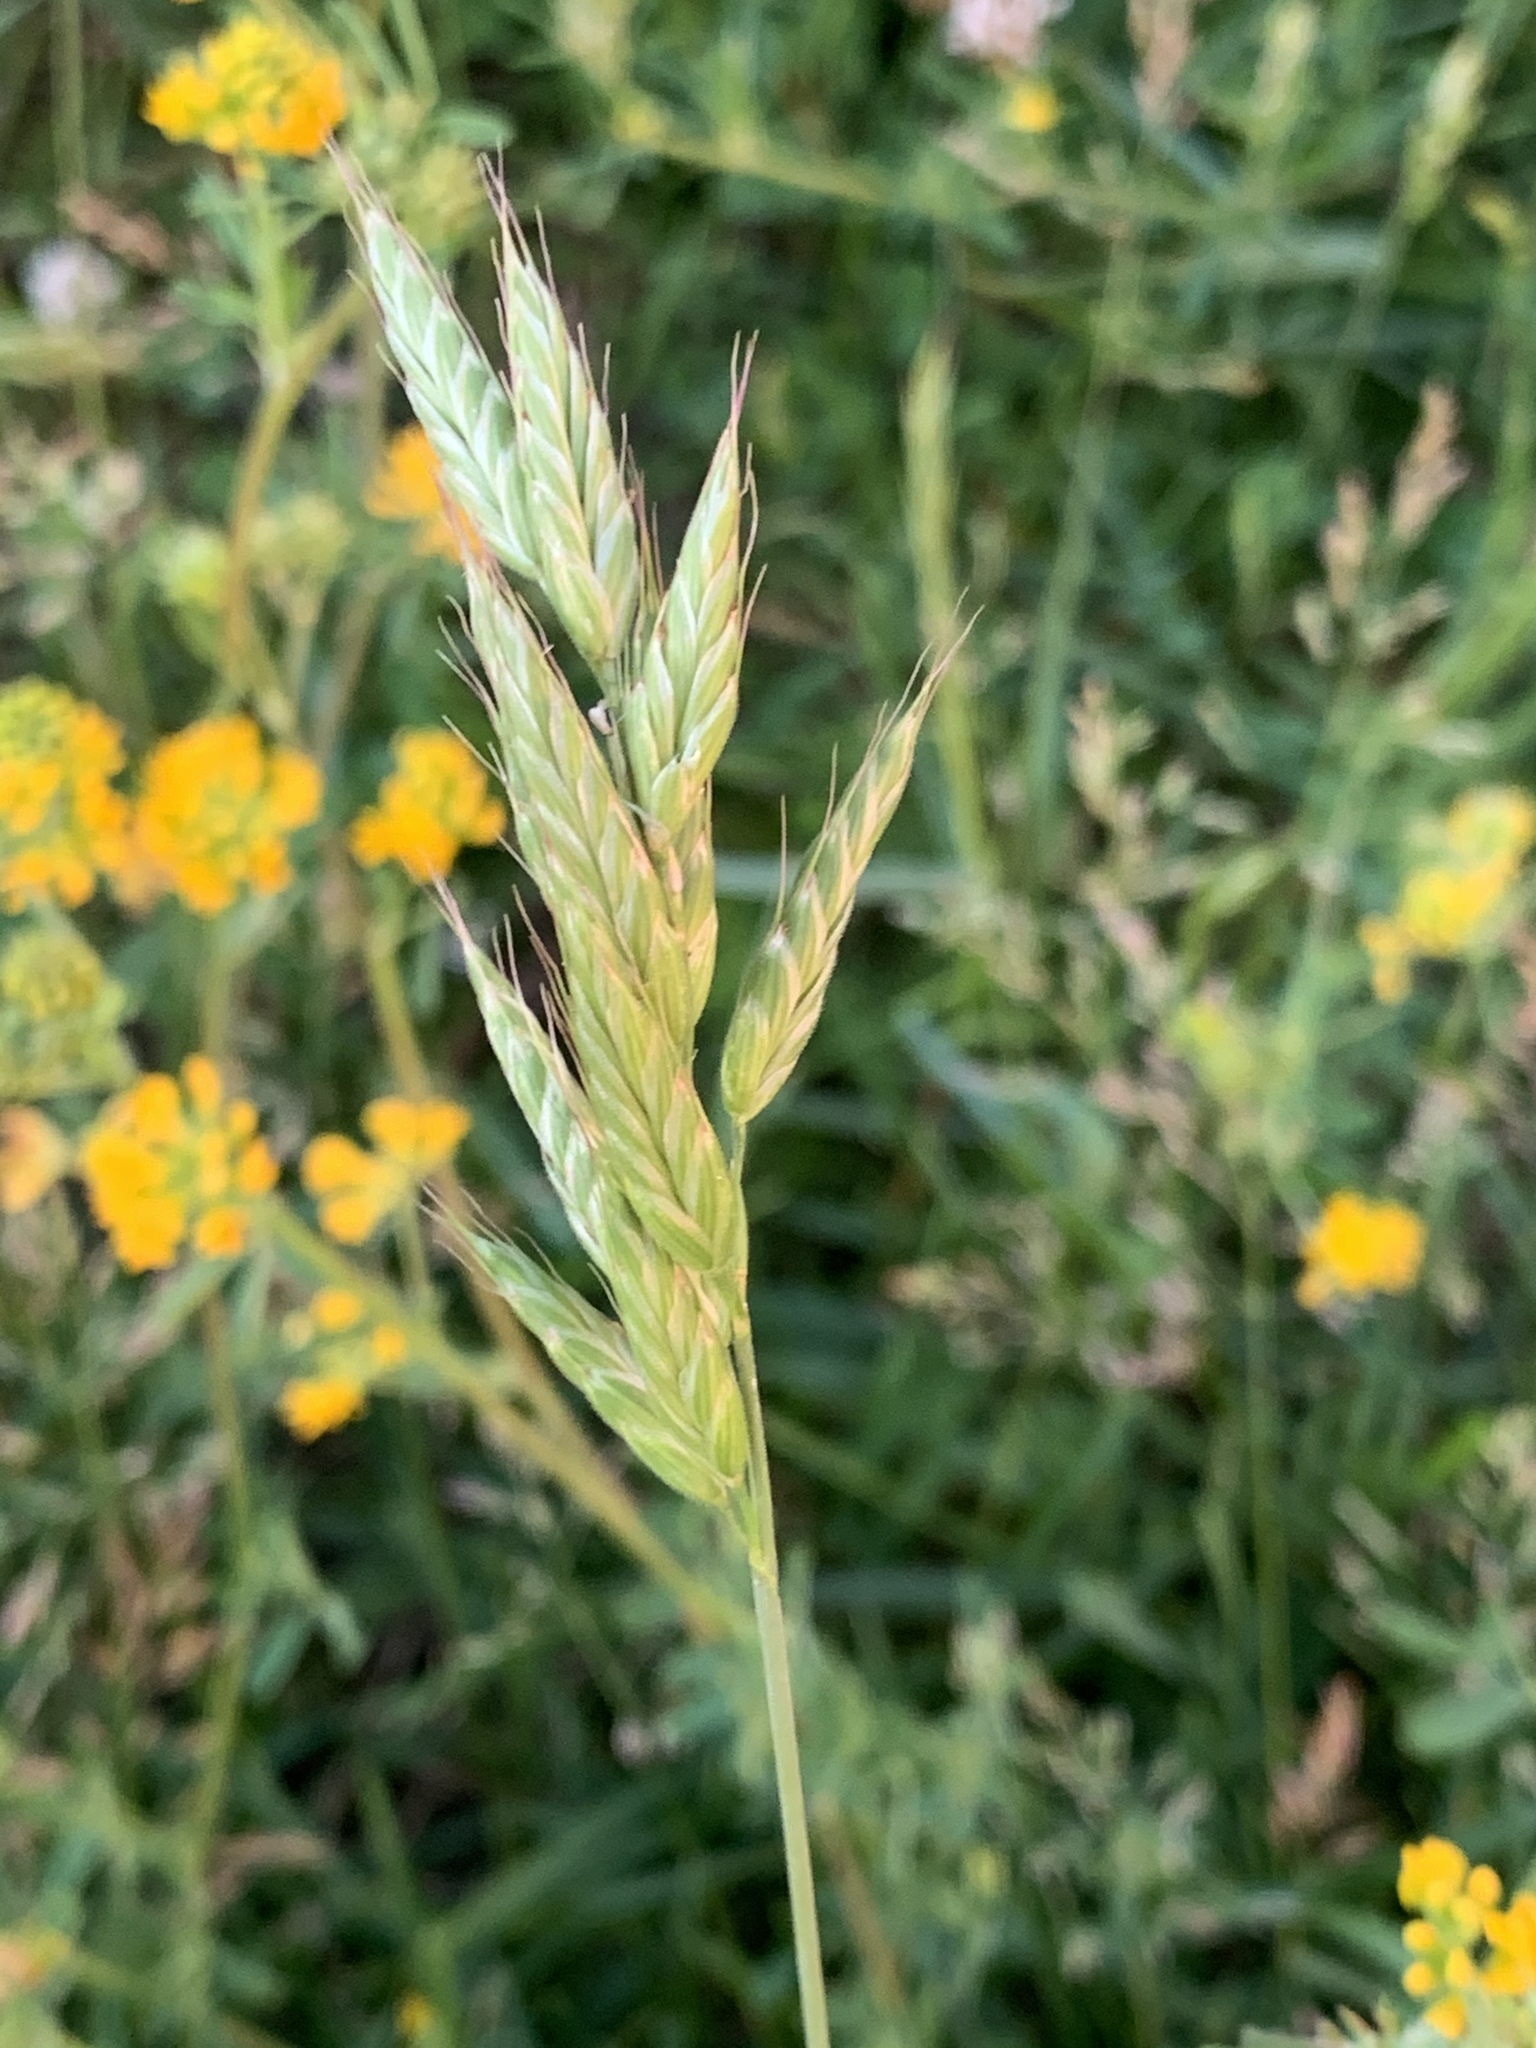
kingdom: Plantae
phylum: Tracheophyta
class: Liliopsida
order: Poales
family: Poaceae
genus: Bromus
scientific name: Bromus hordeaceus
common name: Soft brome
